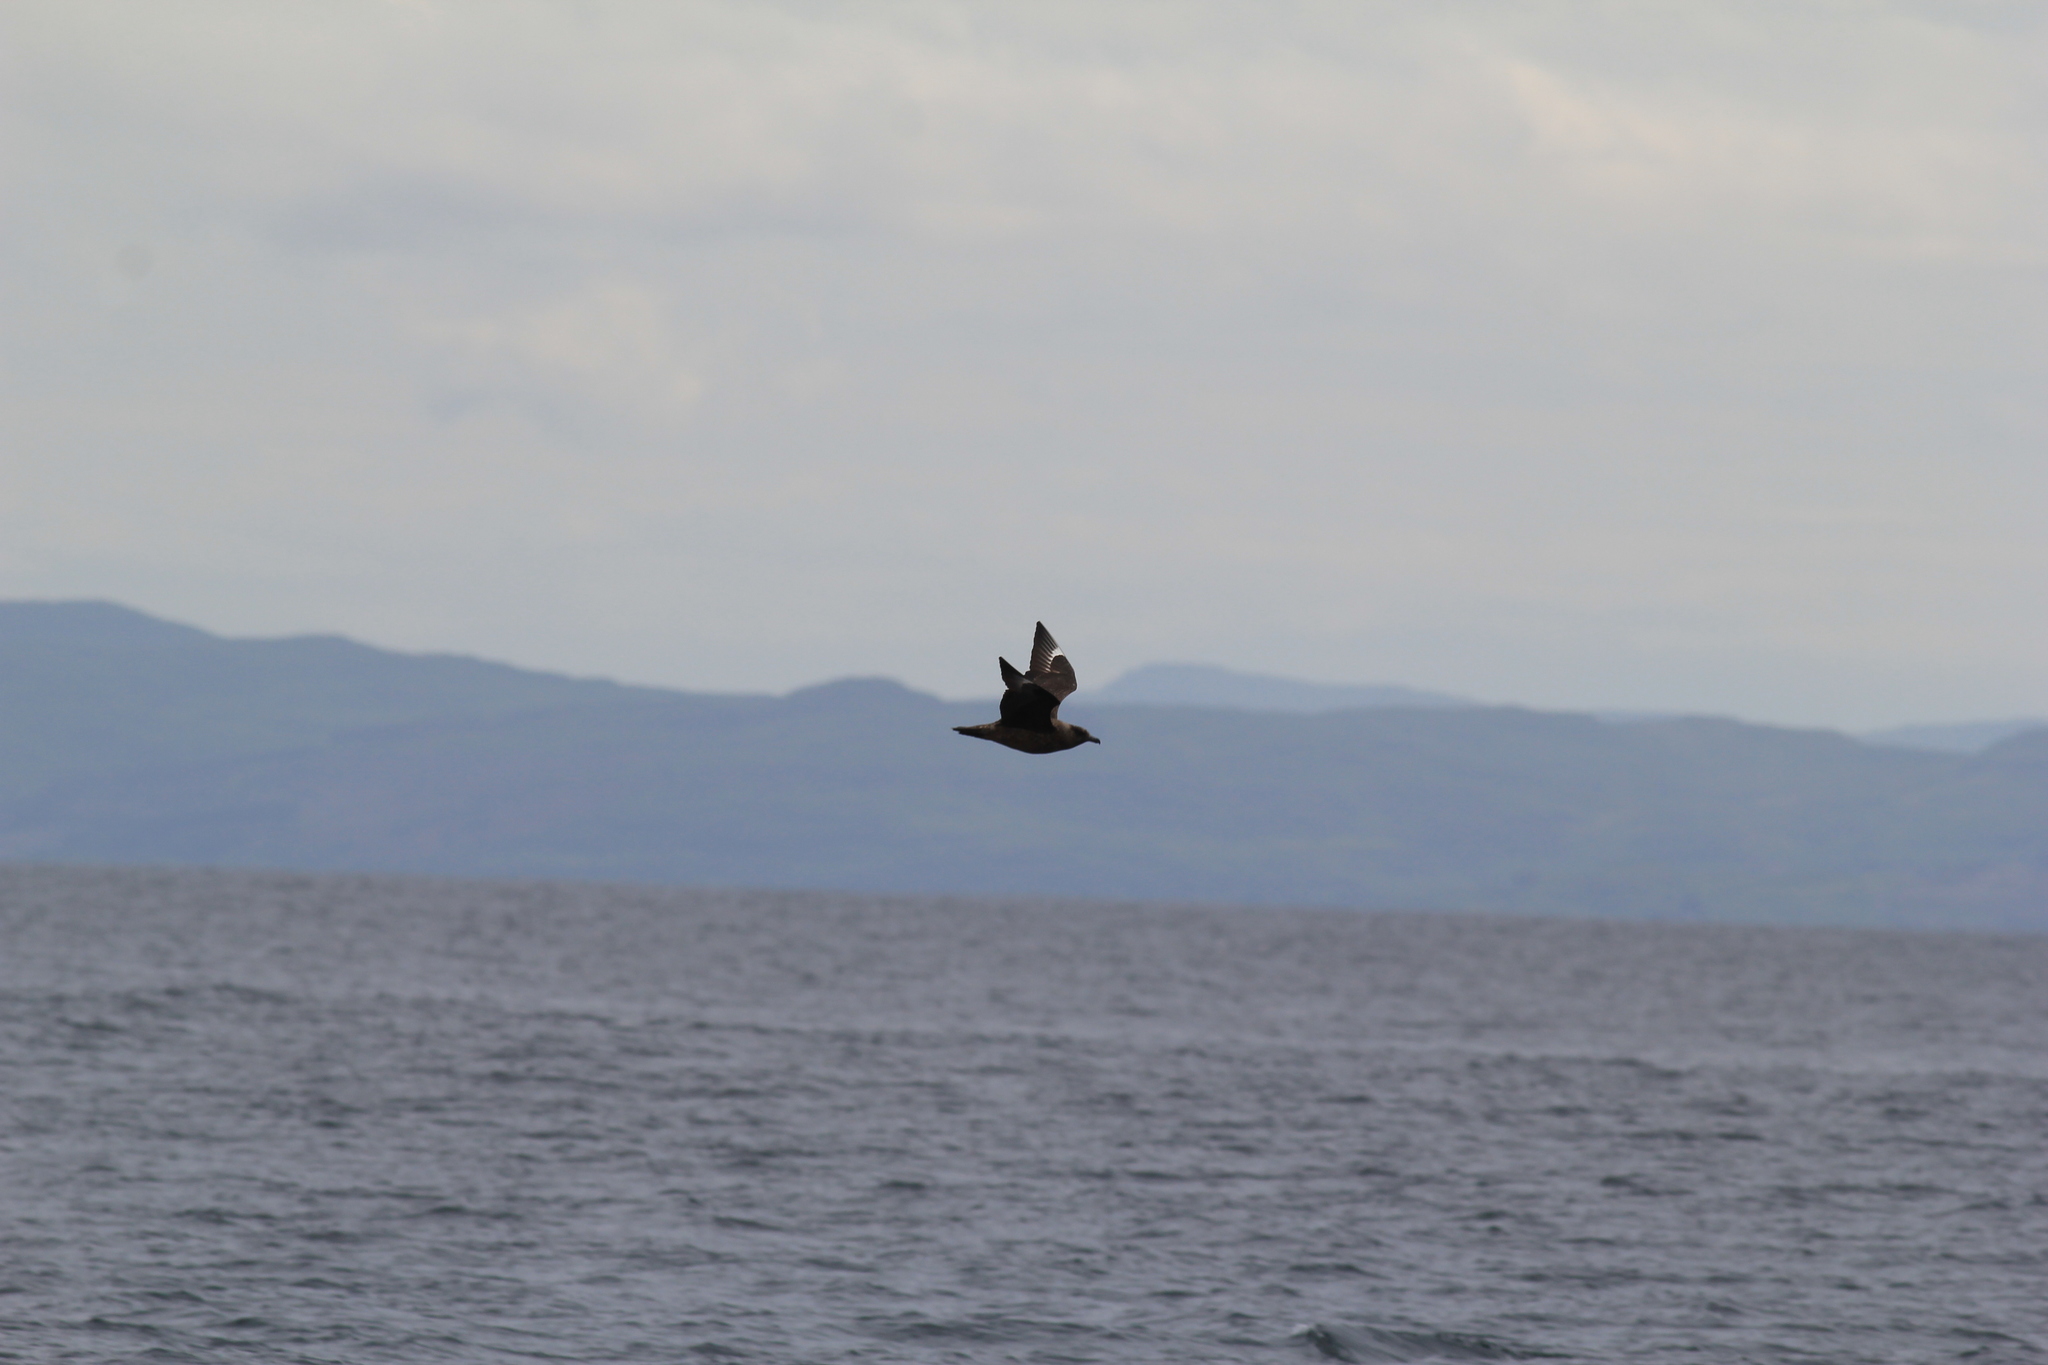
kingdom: Animalia
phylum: Chordata
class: Aves
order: Charadriiformes
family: Stercorariidae
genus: Stercorarius
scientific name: Stercorarius skua
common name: Great skua
